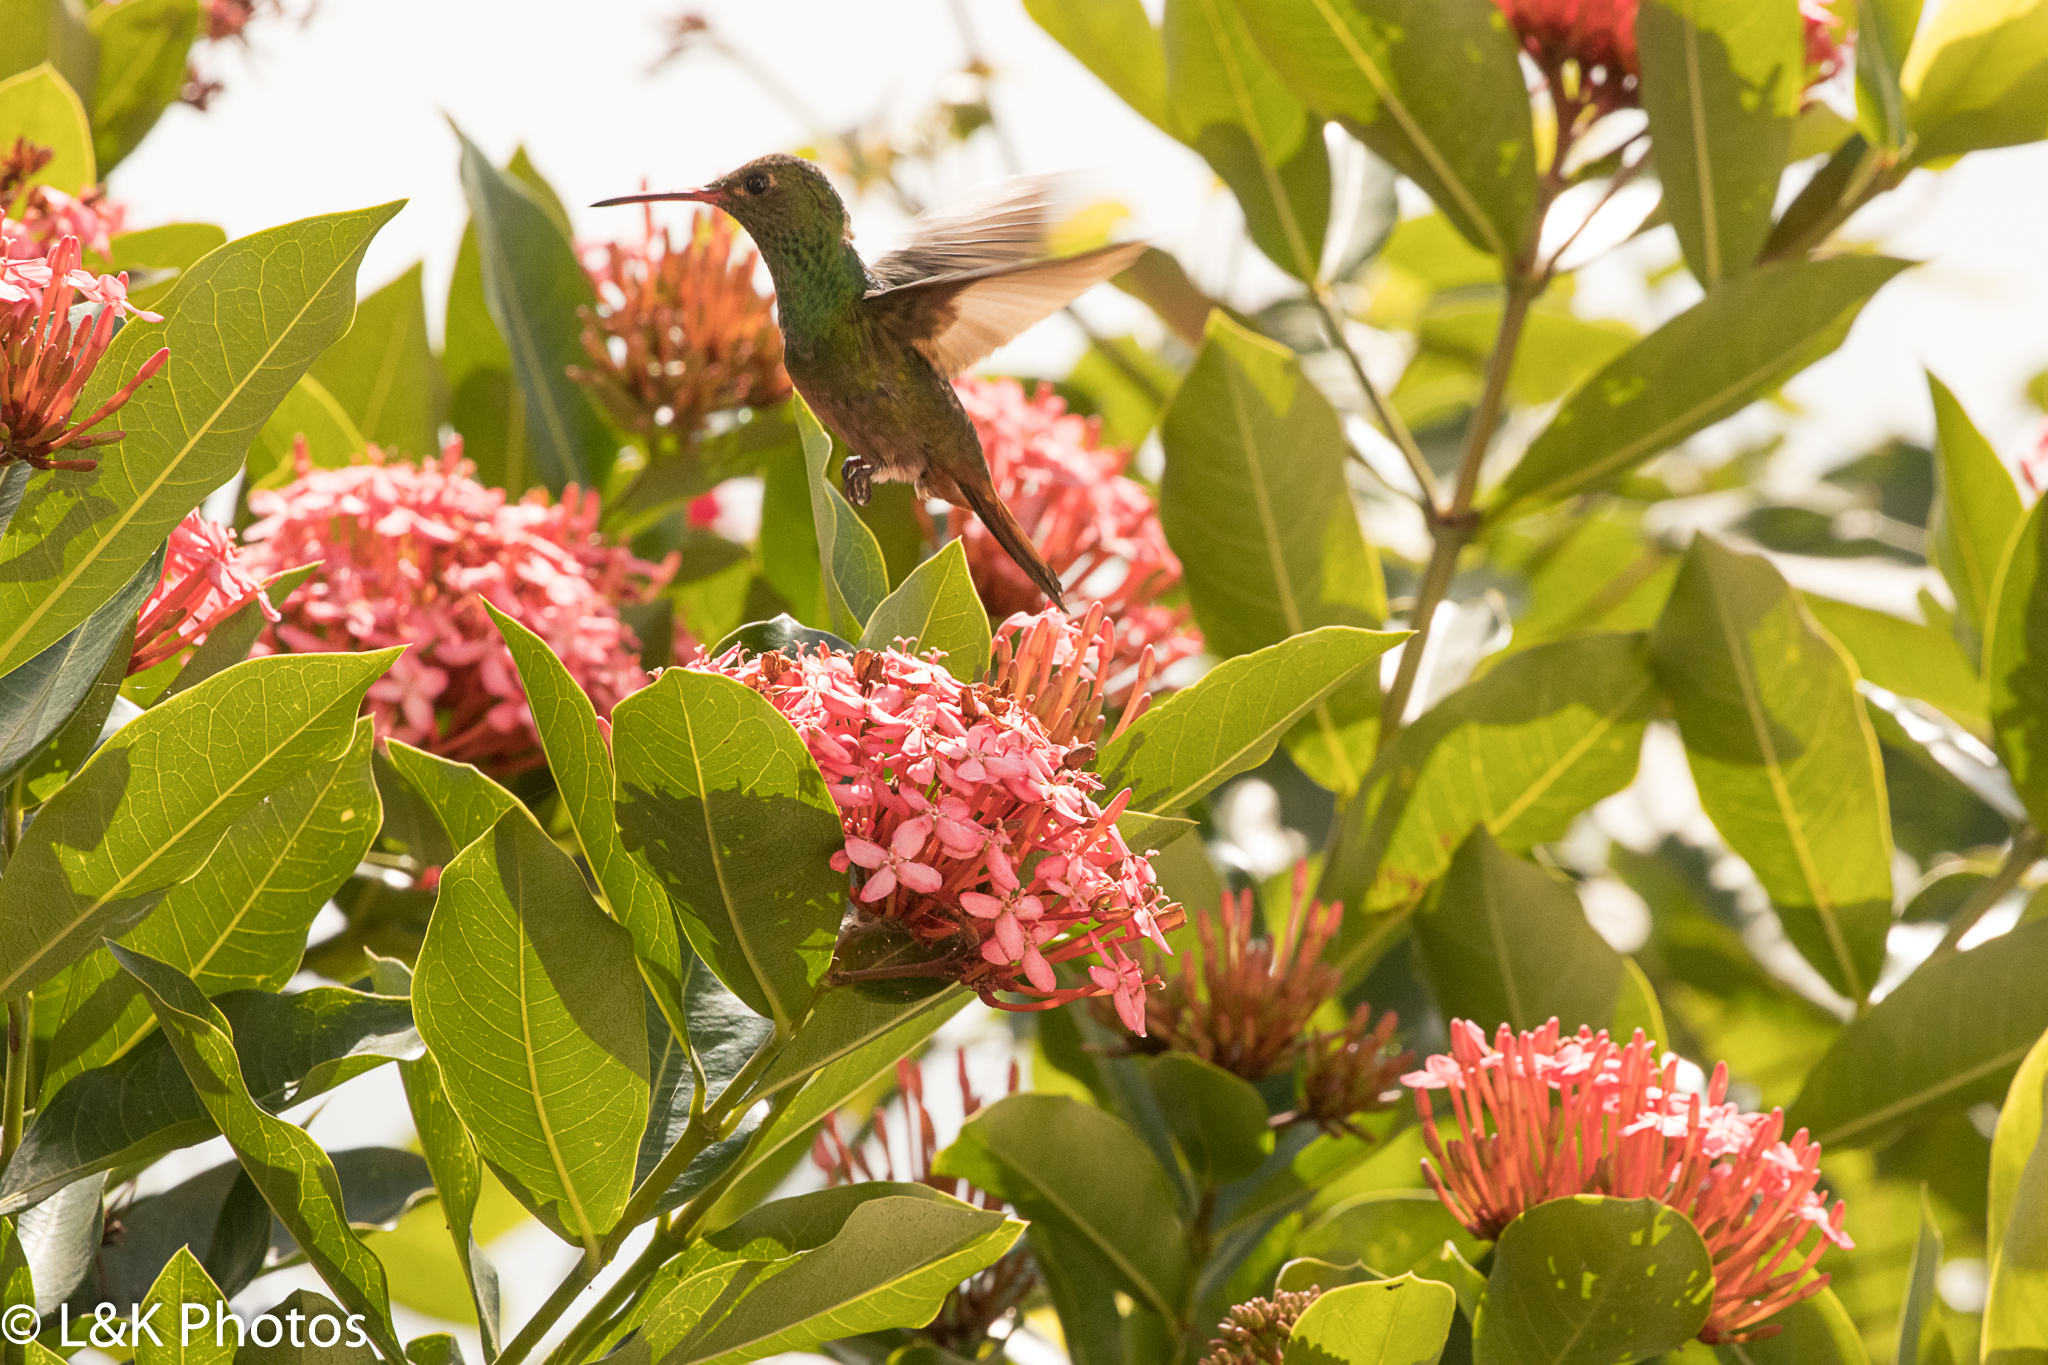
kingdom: Animalia
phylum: Chordata
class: Aves
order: Apodiformes
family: Trochilidae
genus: Amazilia
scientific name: Amazilia tzacatl
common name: Rufous-tailed hummingbird
